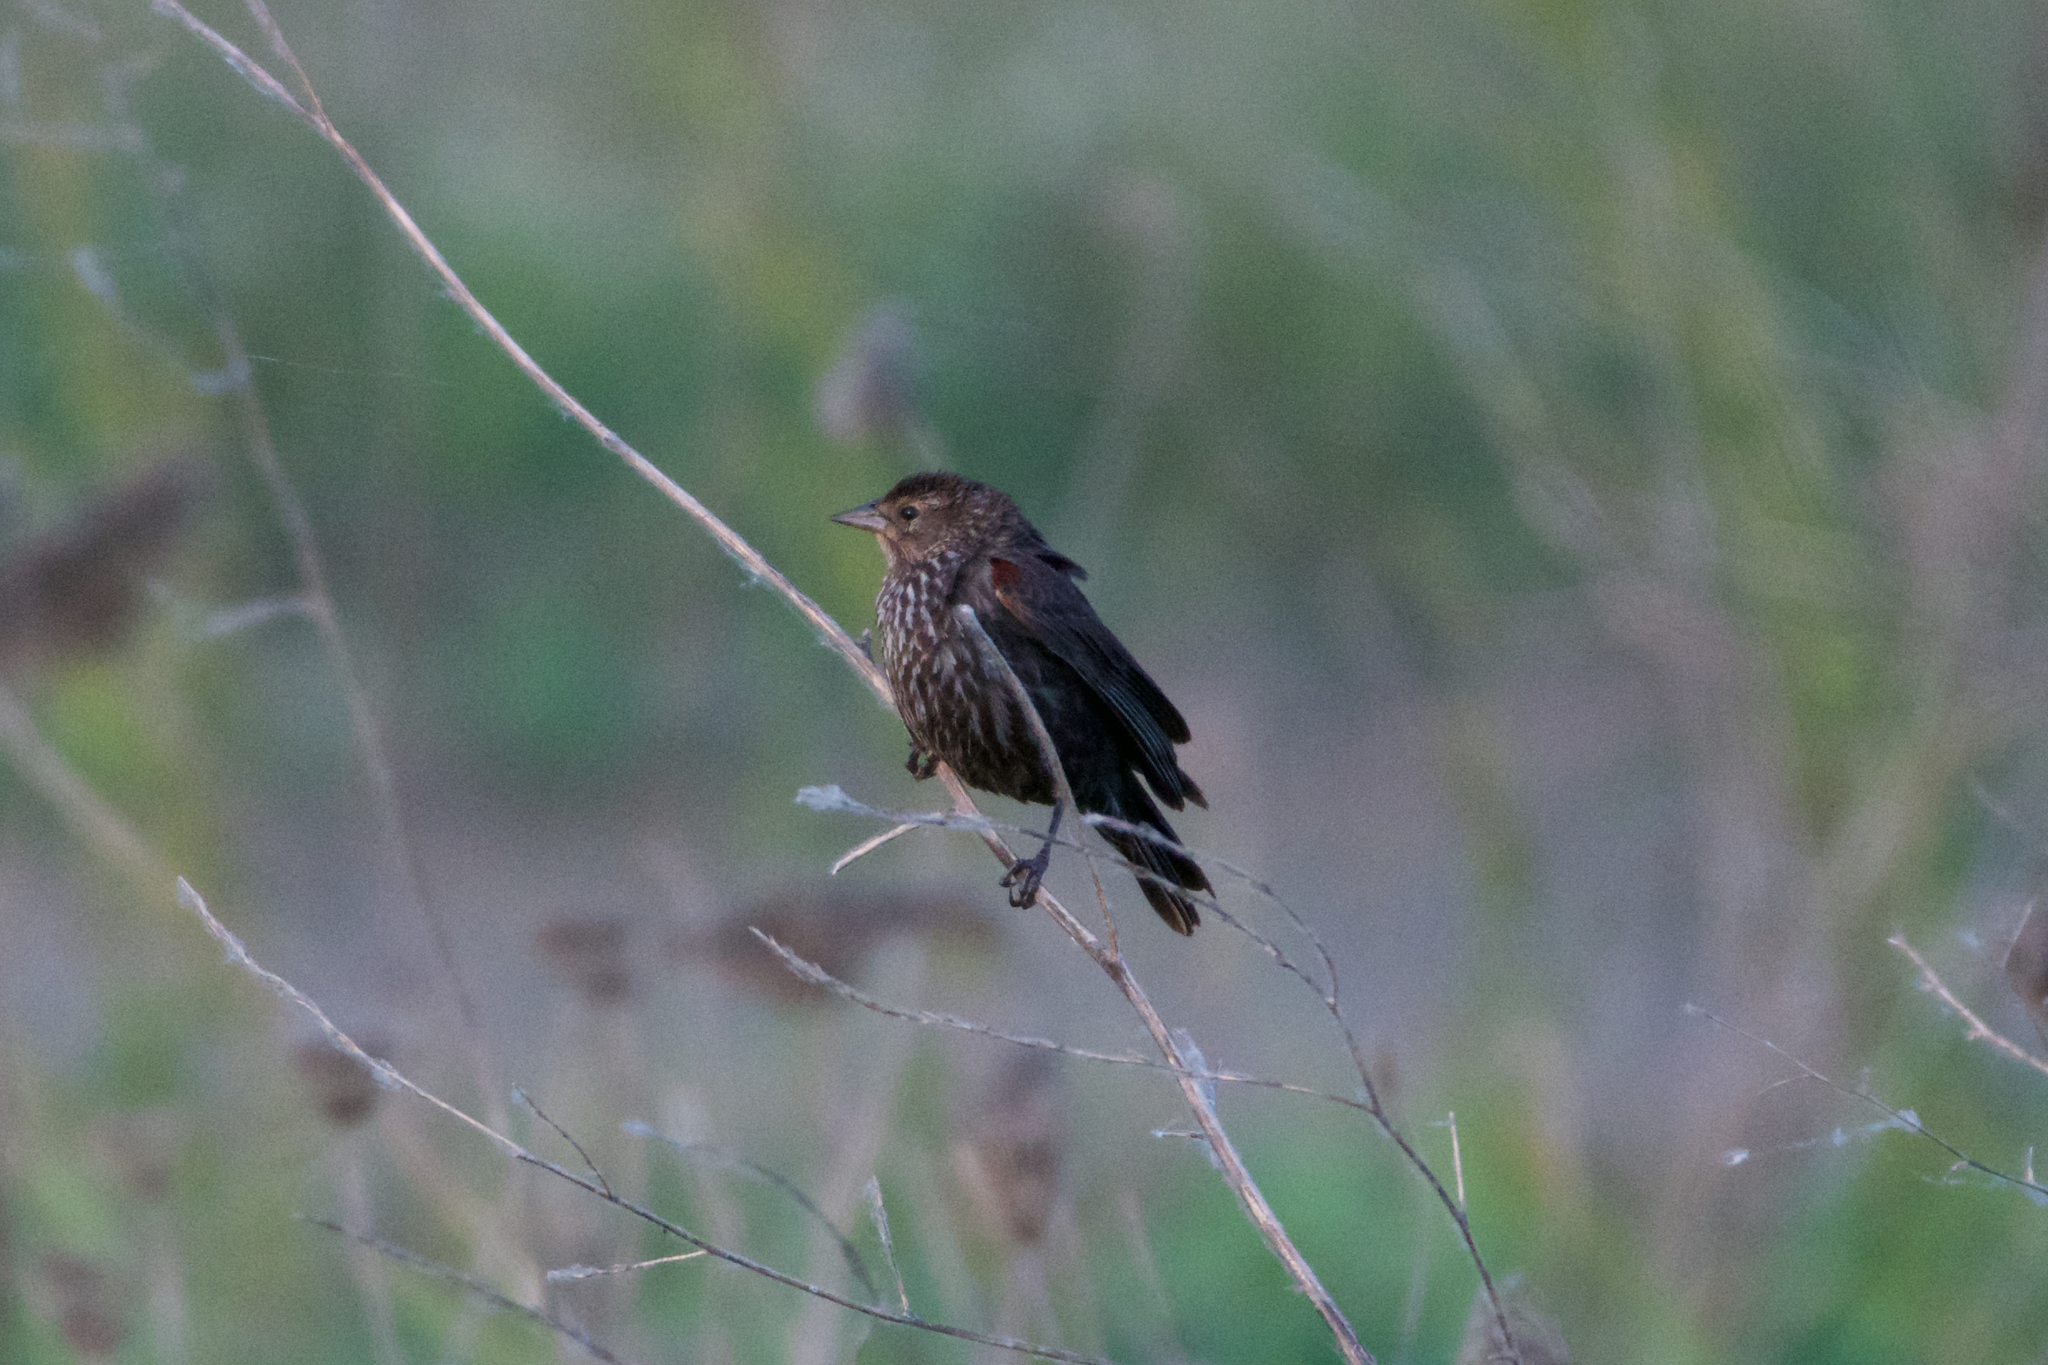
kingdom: Animalia
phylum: Chordata
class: Aves
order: Passeriformes
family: Icteridae
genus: Agelaius
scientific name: Agelaius phoeniceus
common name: Red-winged blackbird
